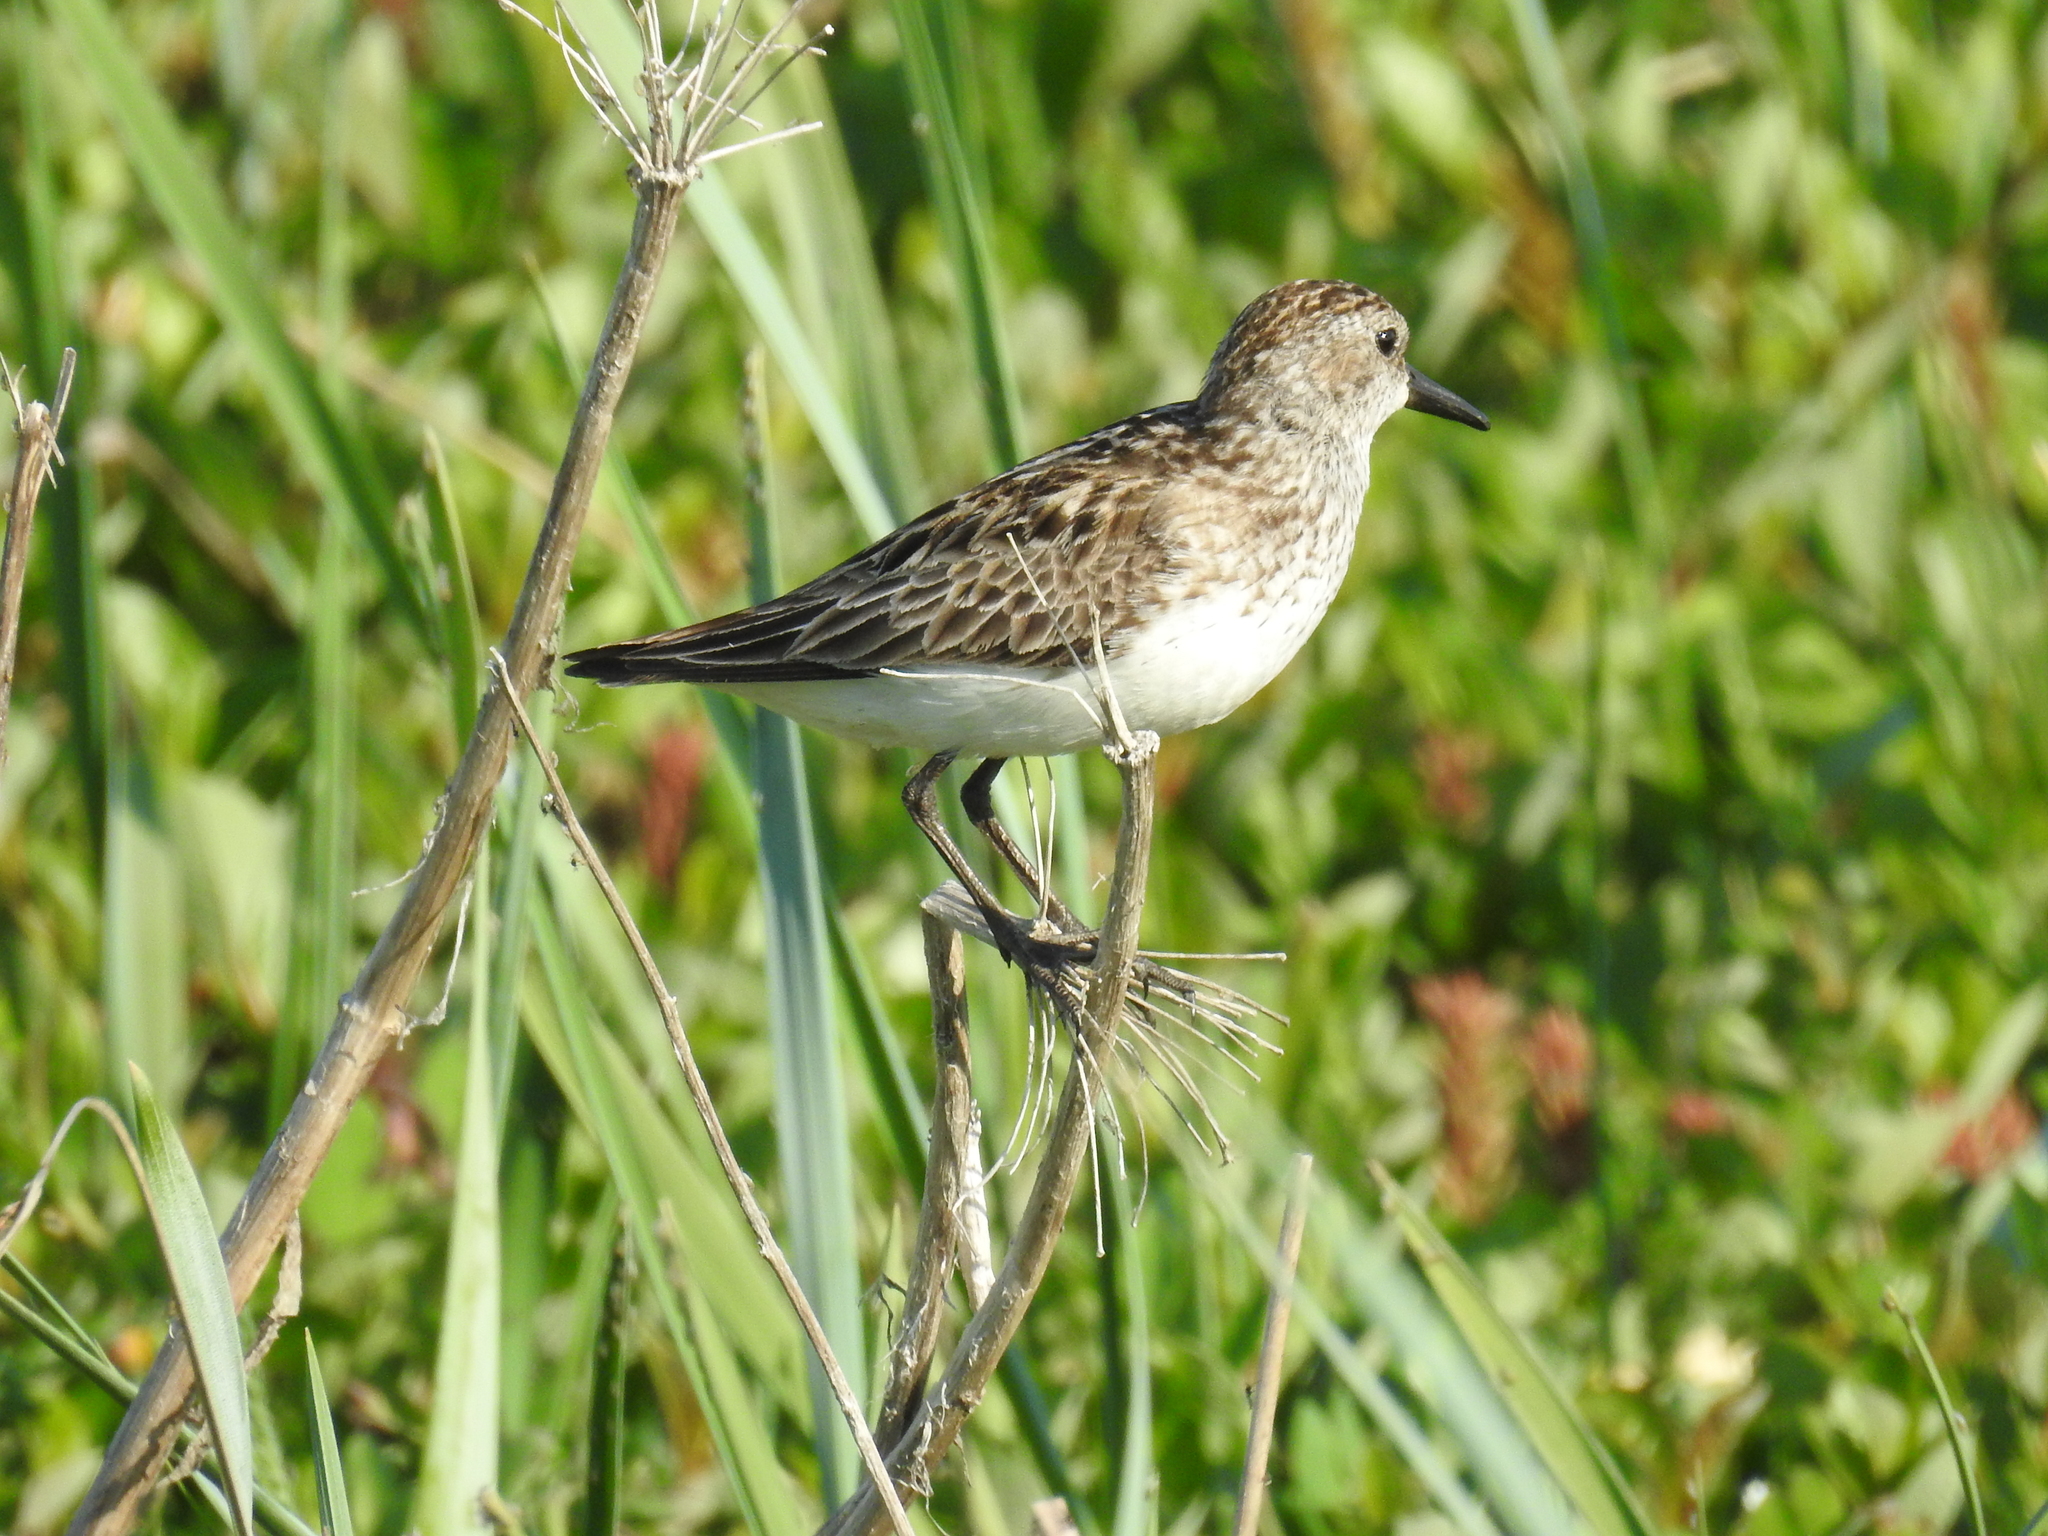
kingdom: Animalia
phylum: Chordata
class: Aves
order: Charadriiformes
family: Scolopacidae
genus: Calidris
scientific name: Calidris pusilla
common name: Semipalmated sandpiper
